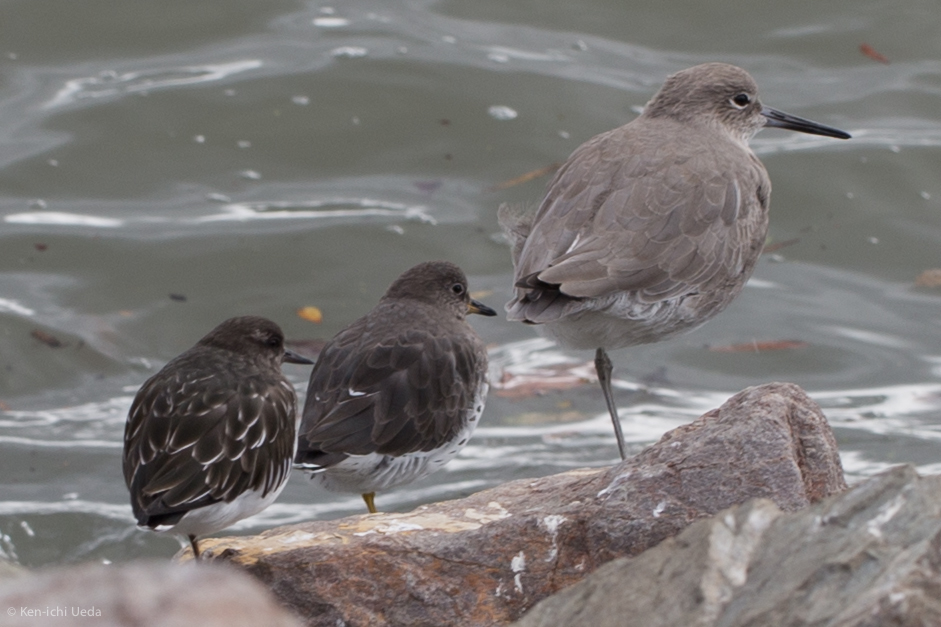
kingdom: Animalia
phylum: Chordata
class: Aves
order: Charadriiformes
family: Scolopacidae
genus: Arenaria
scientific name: Arenaria melanocephala
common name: Black turnstone
